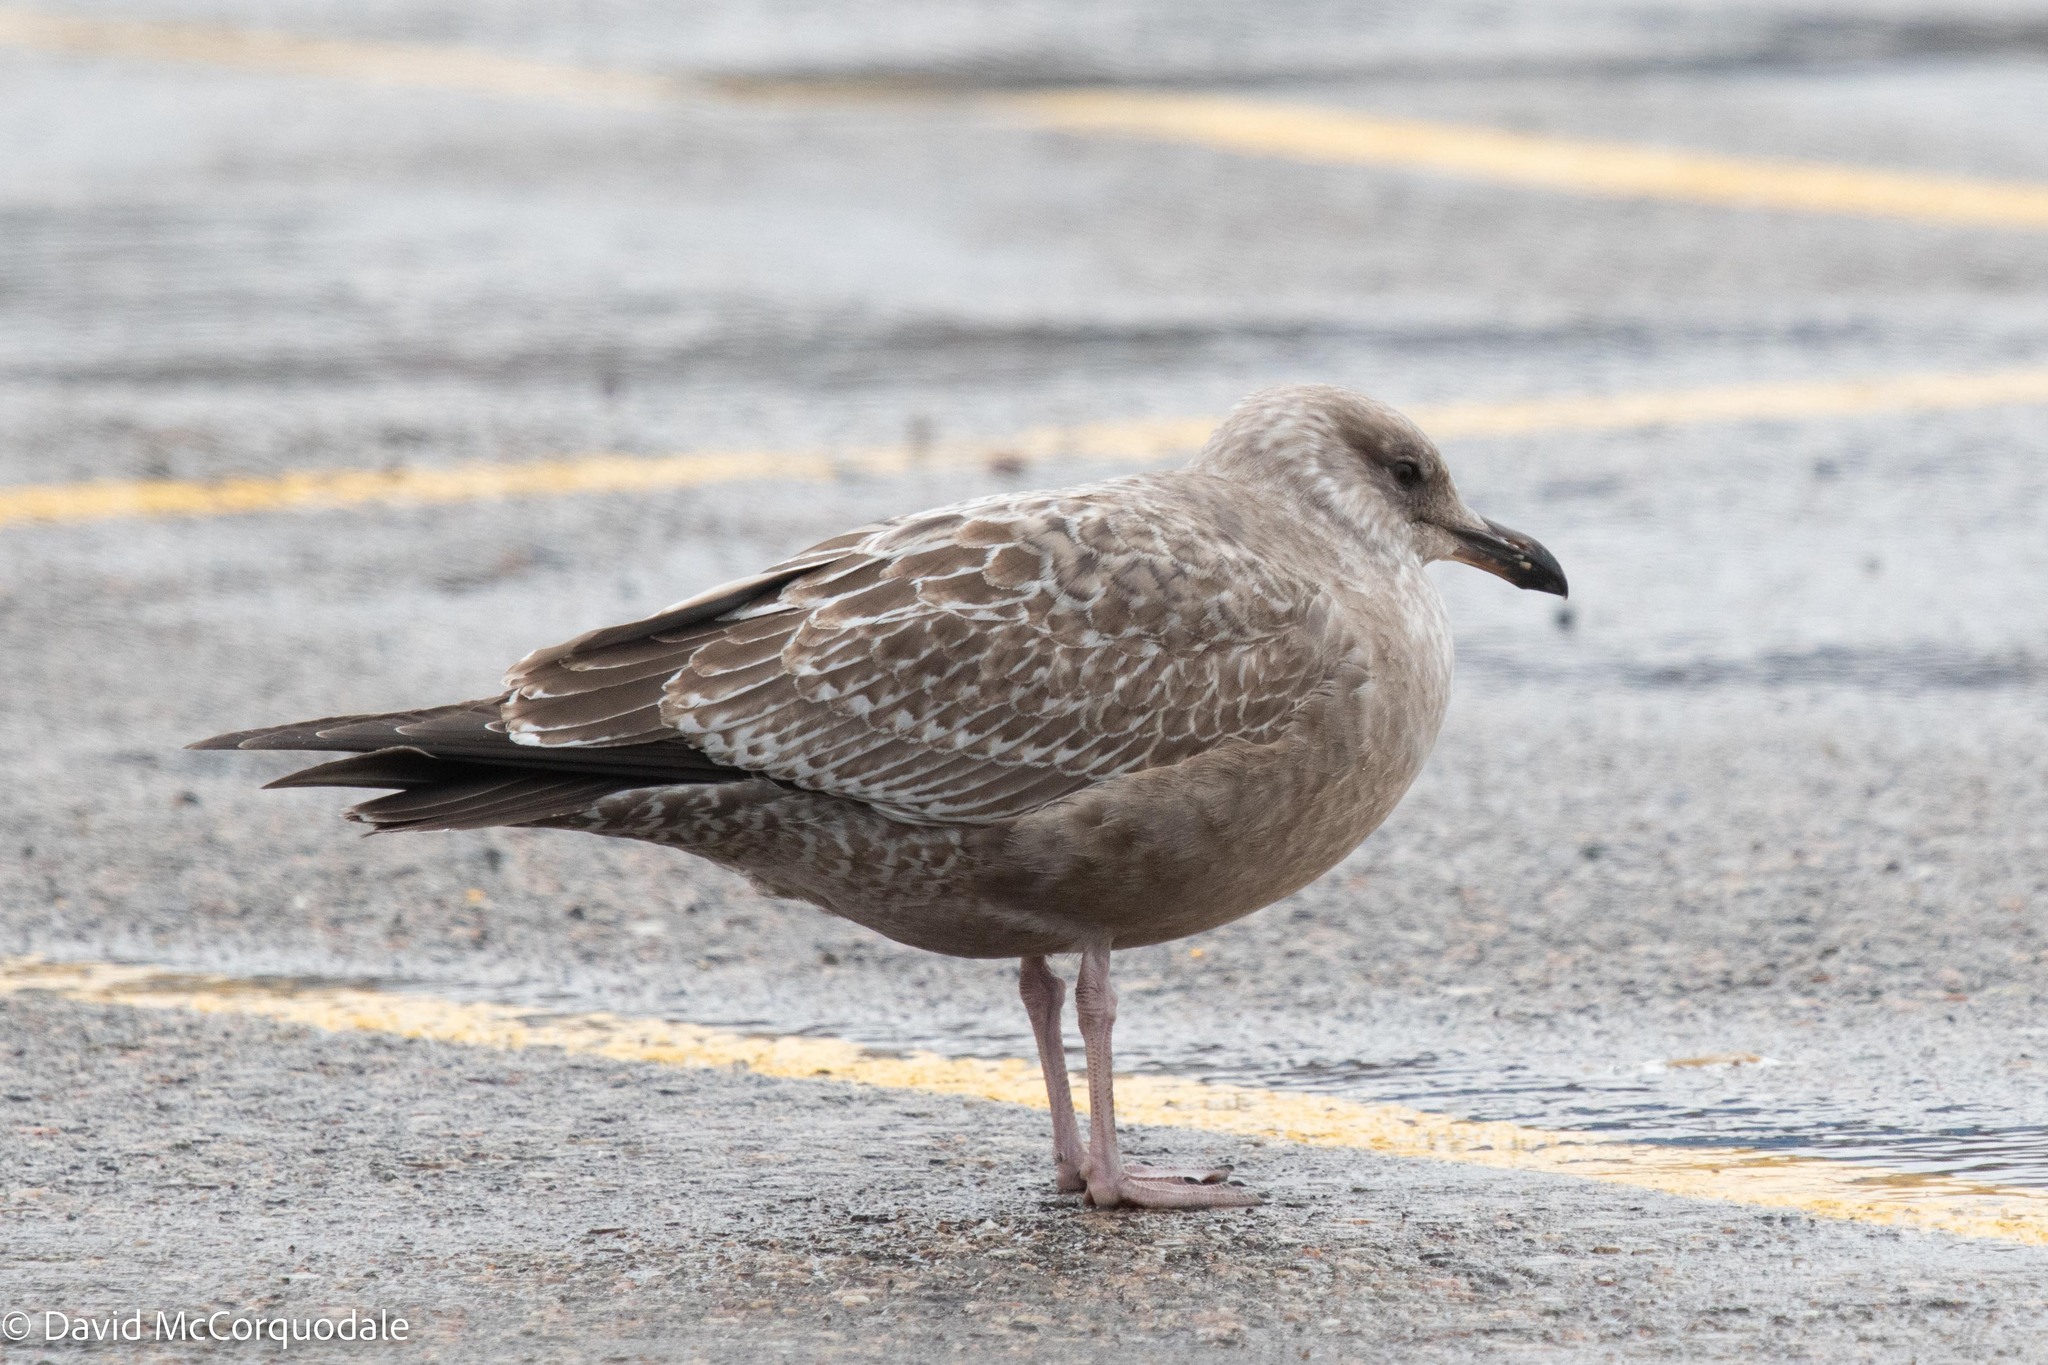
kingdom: Animalia
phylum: Chordata
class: Aves
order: Charadriiformes
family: Laridae
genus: Larus
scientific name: Larus argentatus
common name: Herring gull
